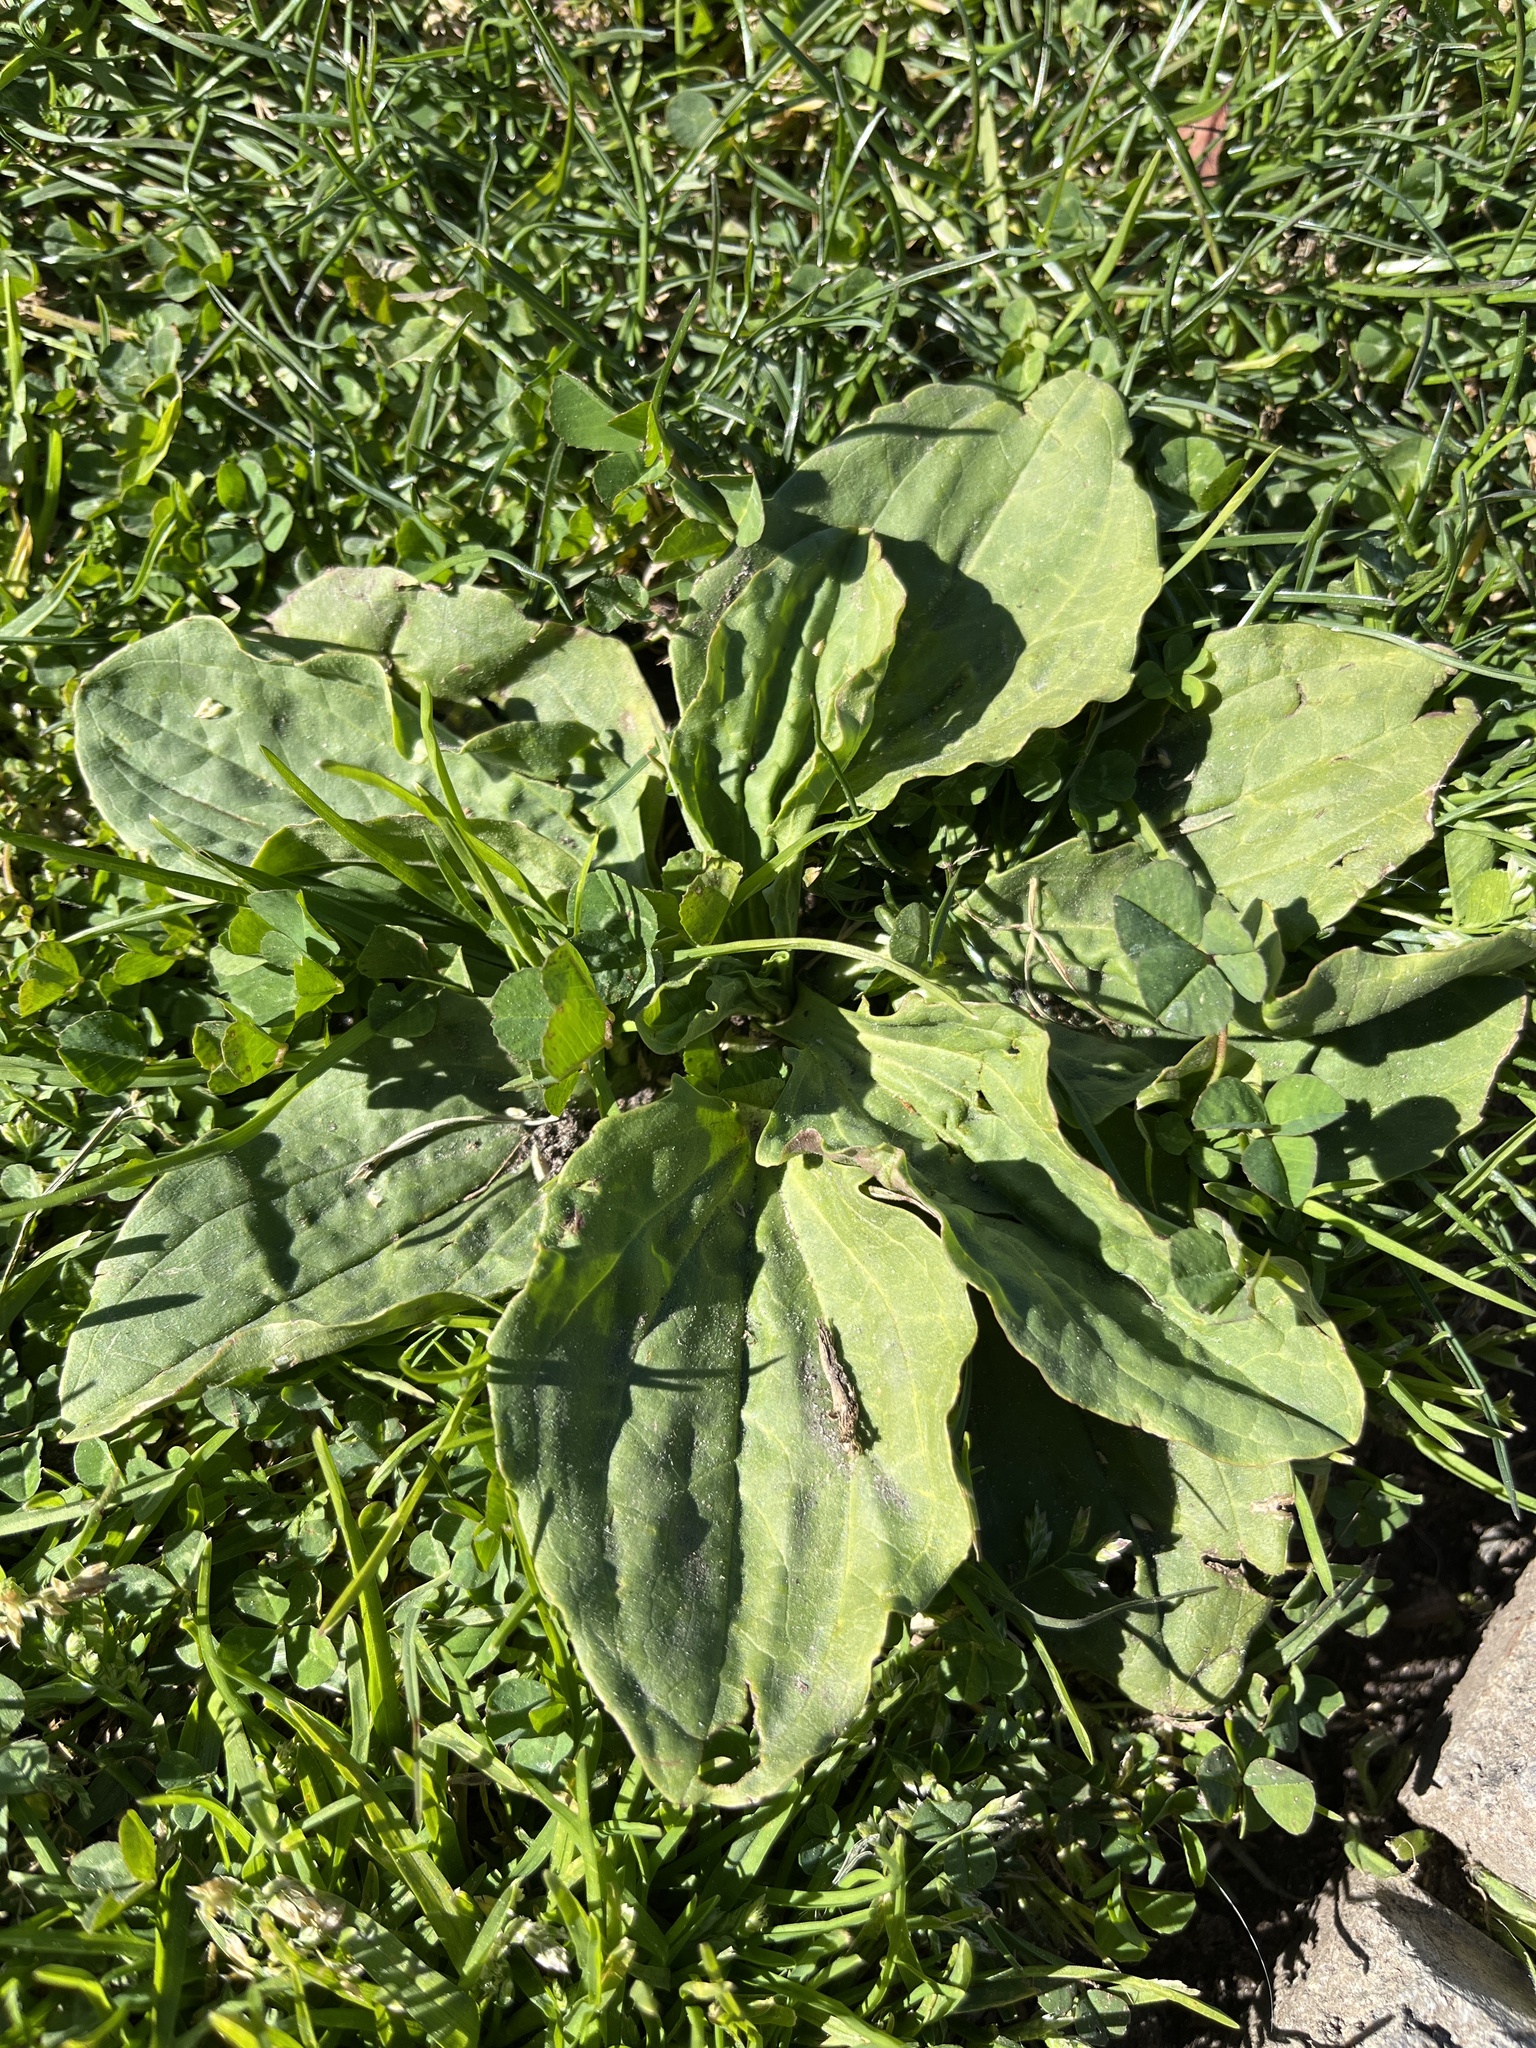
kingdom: Plantae
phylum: Tracheophyta
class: Magnoliopsida
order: Lamiales
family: Plantaginaceae
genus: Plantago
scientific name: Plantago major
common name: Common plantain
